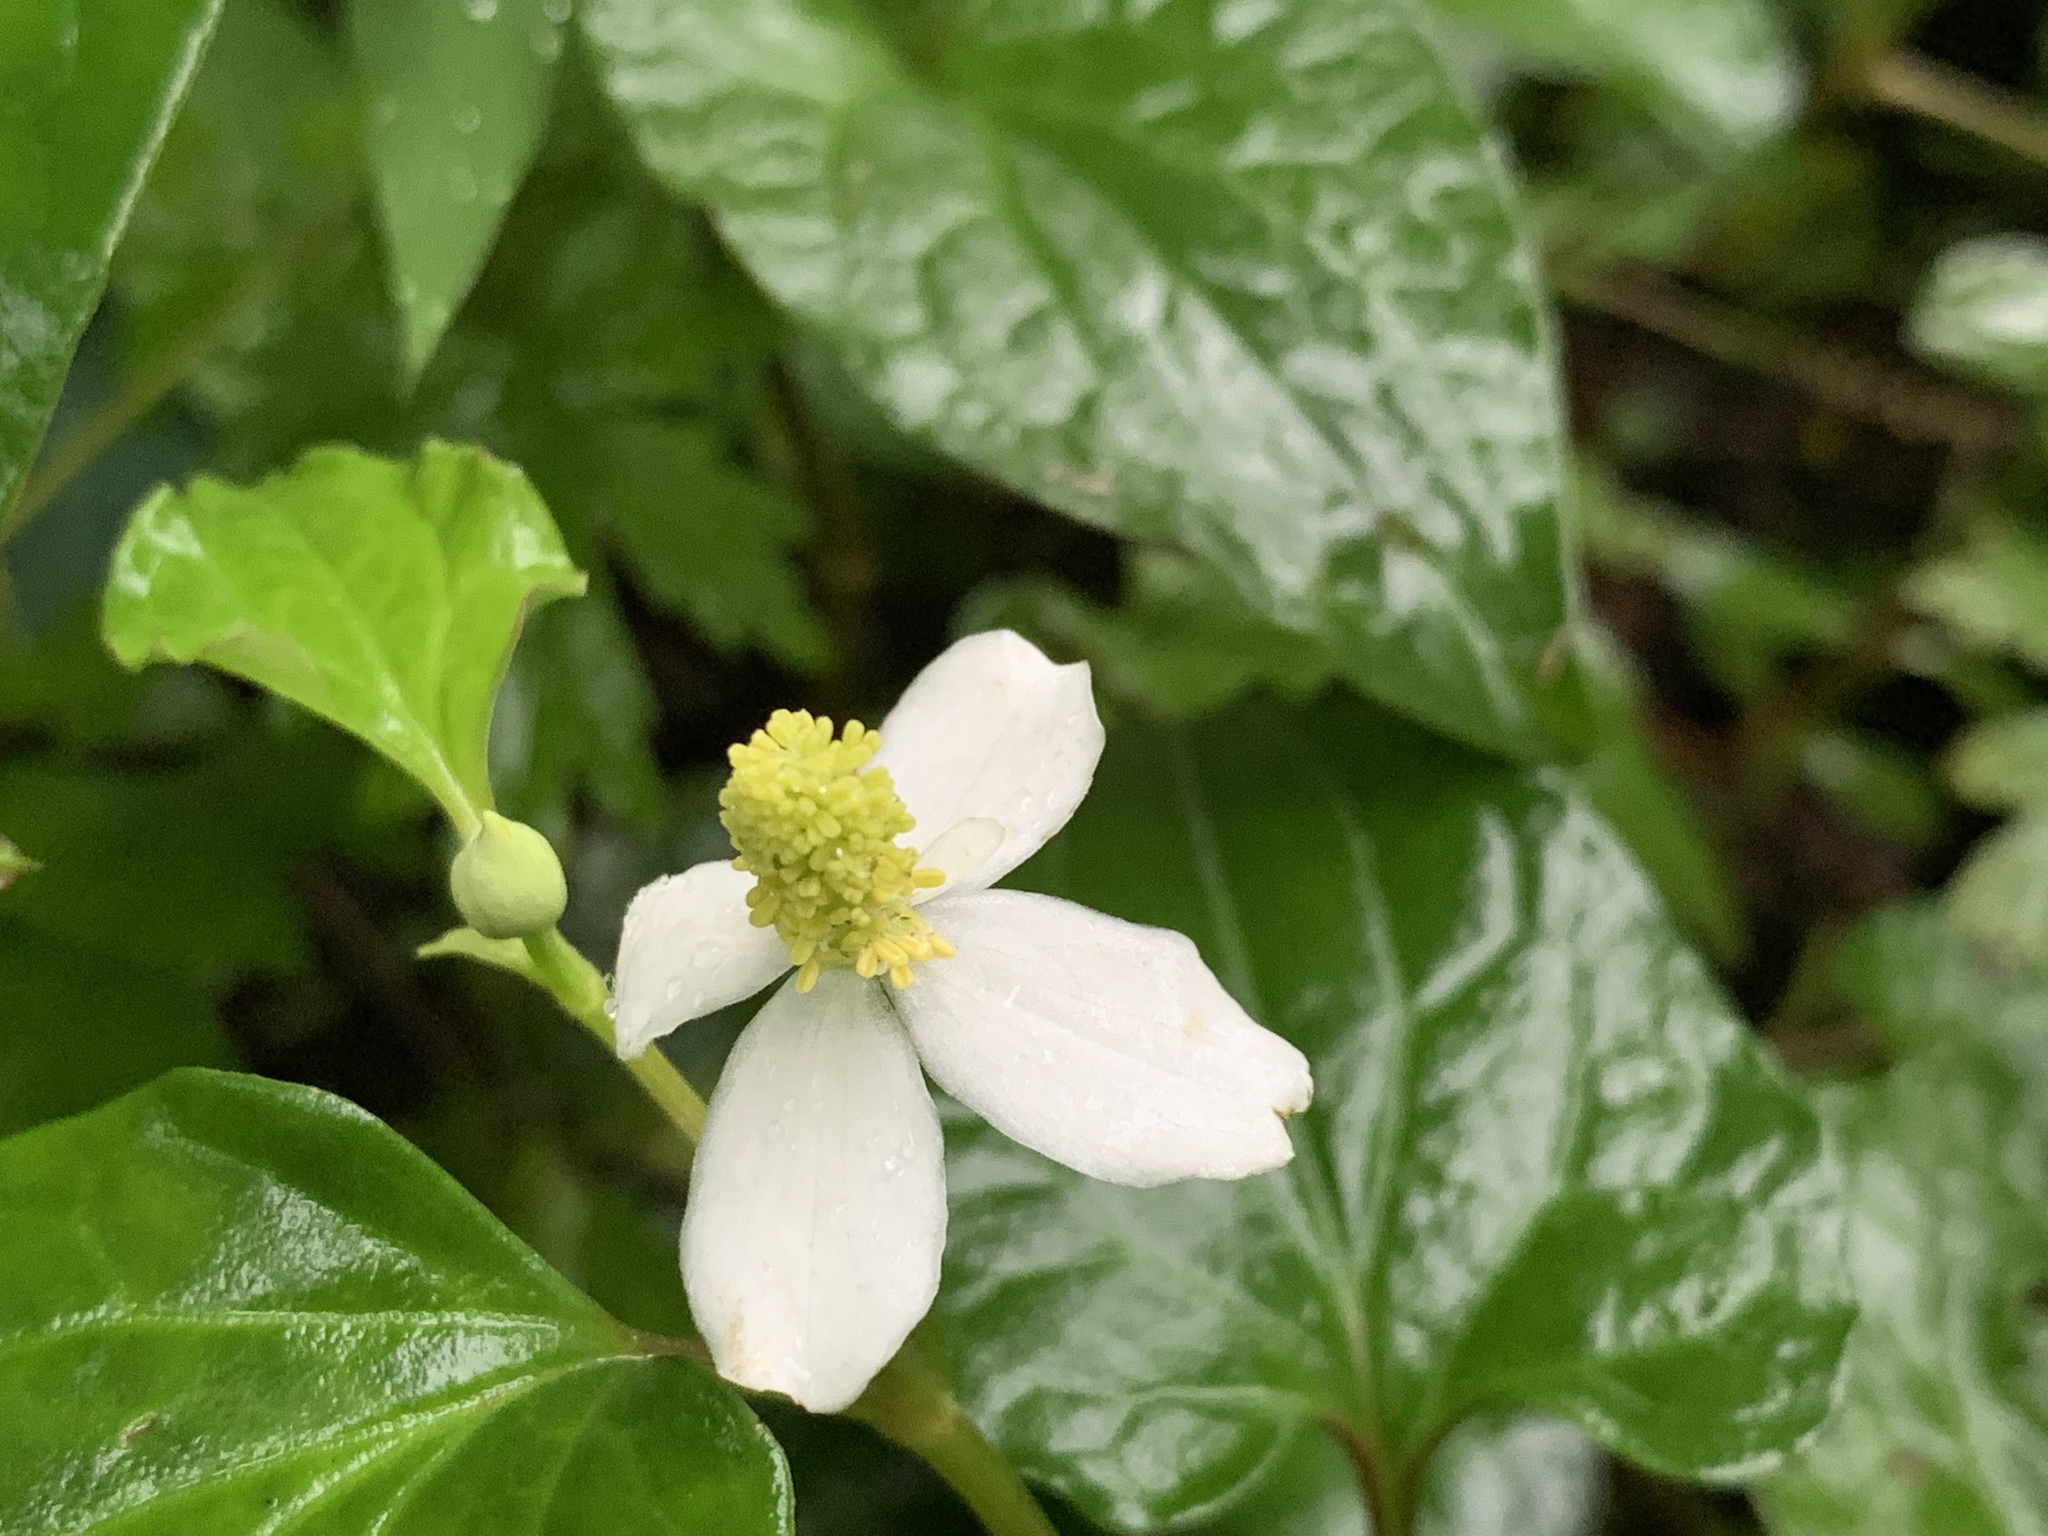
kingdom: Plantae
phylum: Tracheophyta
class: Magnoliopsida
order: Piperales
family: Saururaceae
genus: Houttuynia
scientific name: Houttuynia cordata
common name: Chameleon
